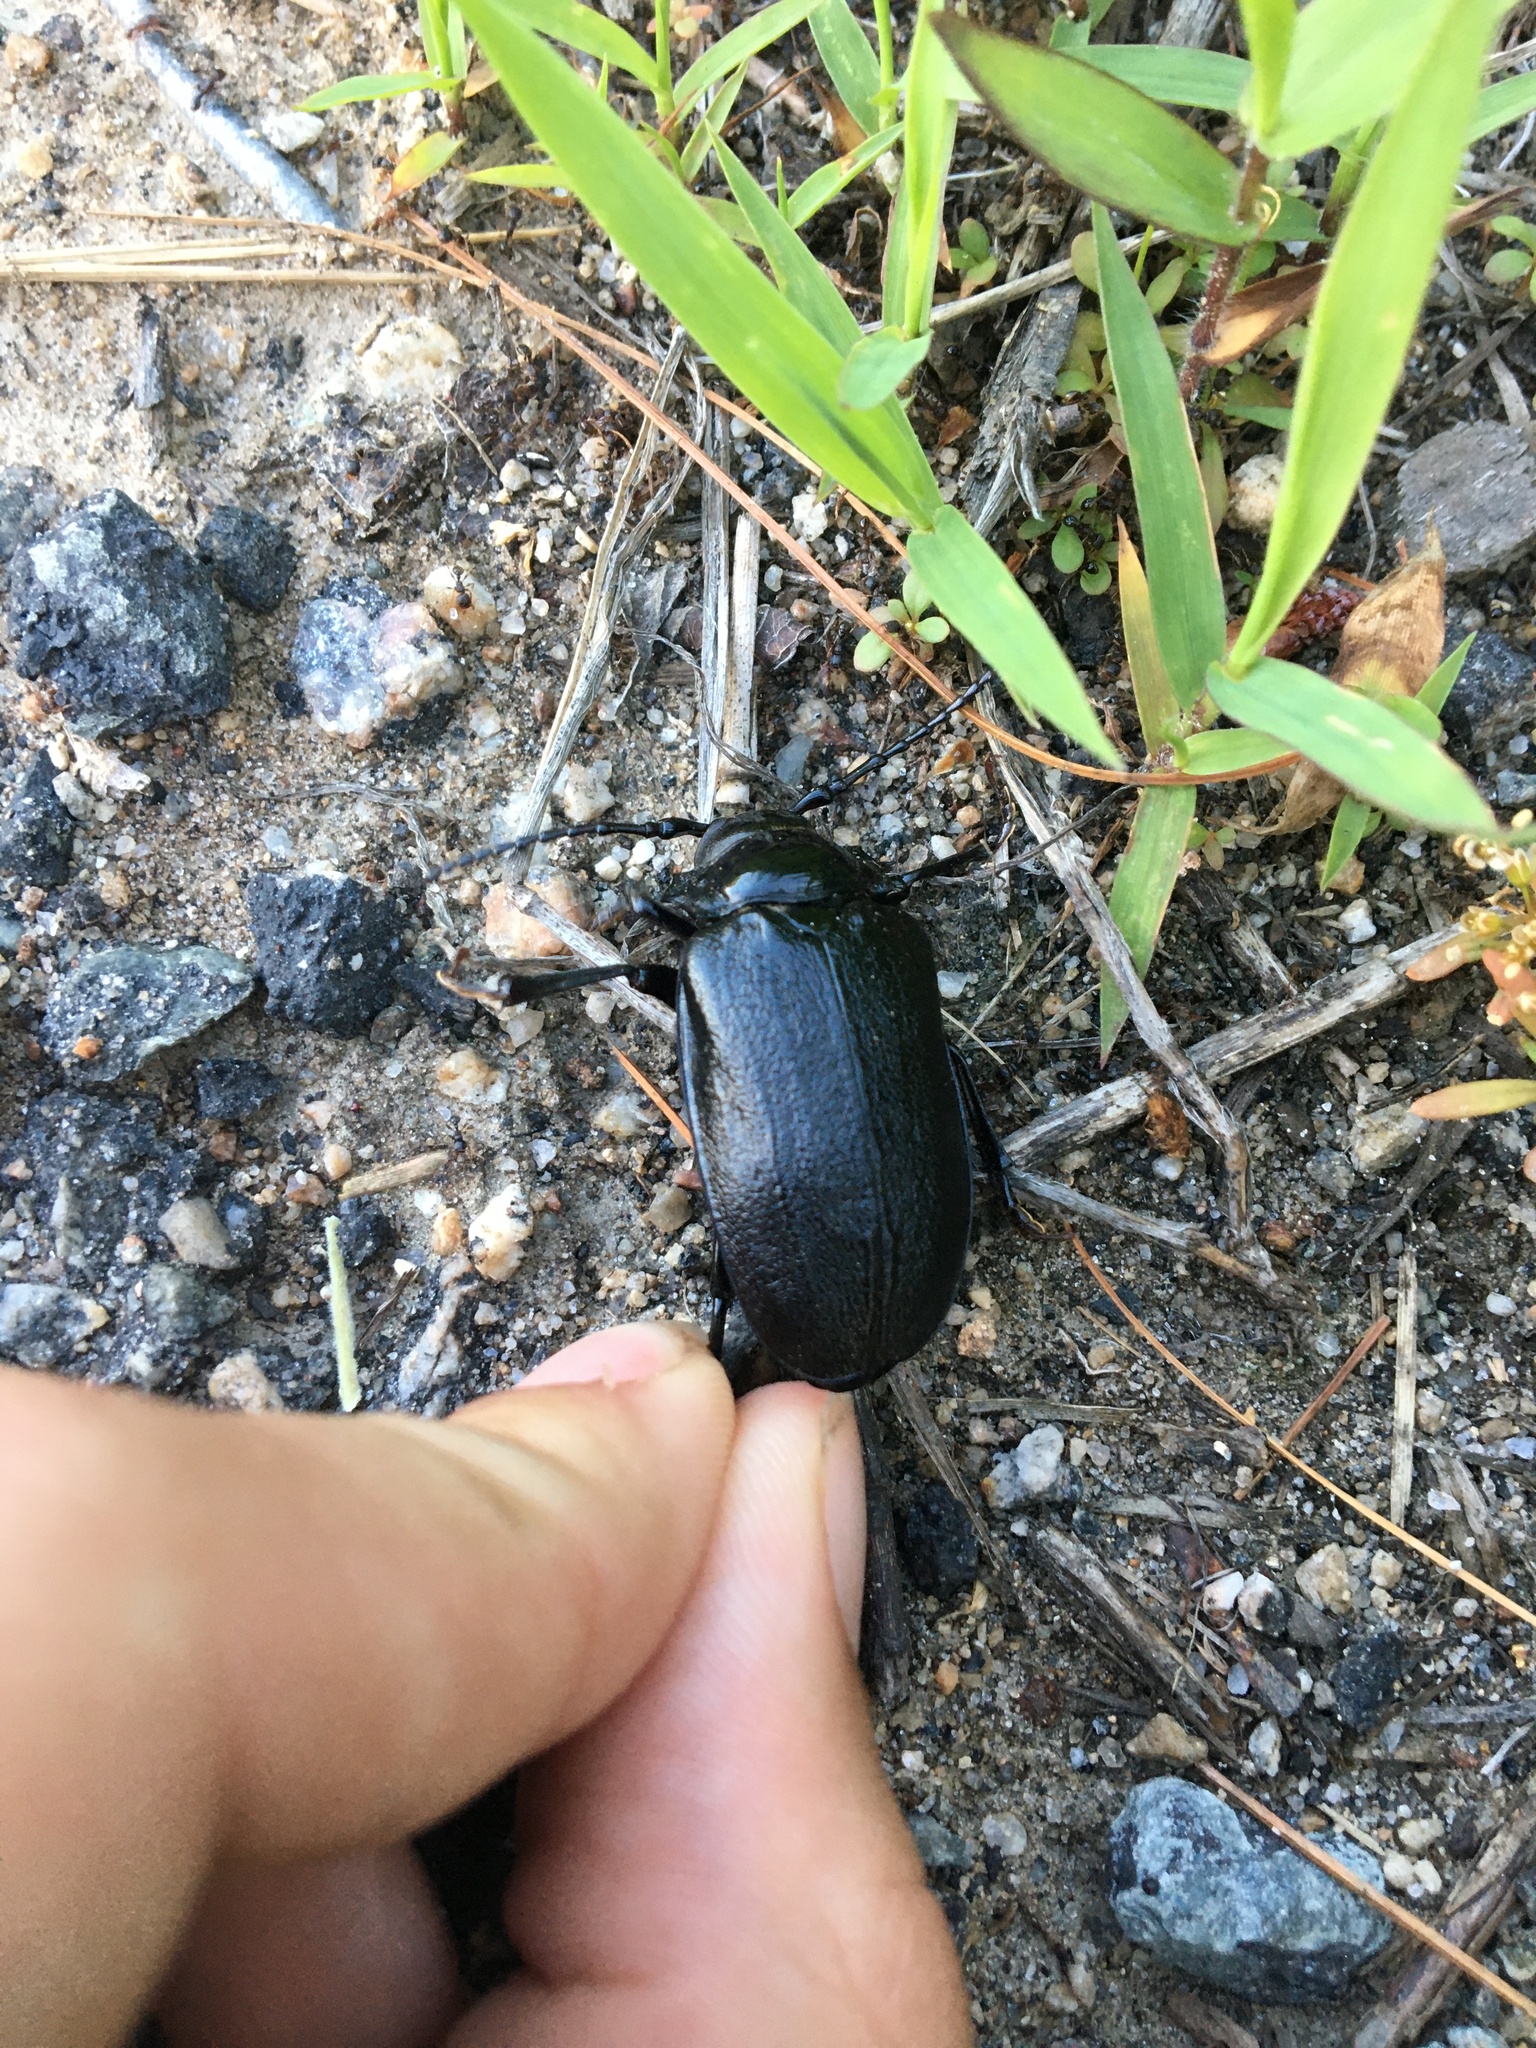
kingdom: Animalia
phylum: Arthropoda
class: Insecta
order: Coleoptera
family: Cerambycidae
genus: Prionus
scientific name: Prionus laticollis
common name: Broad necked prionus
